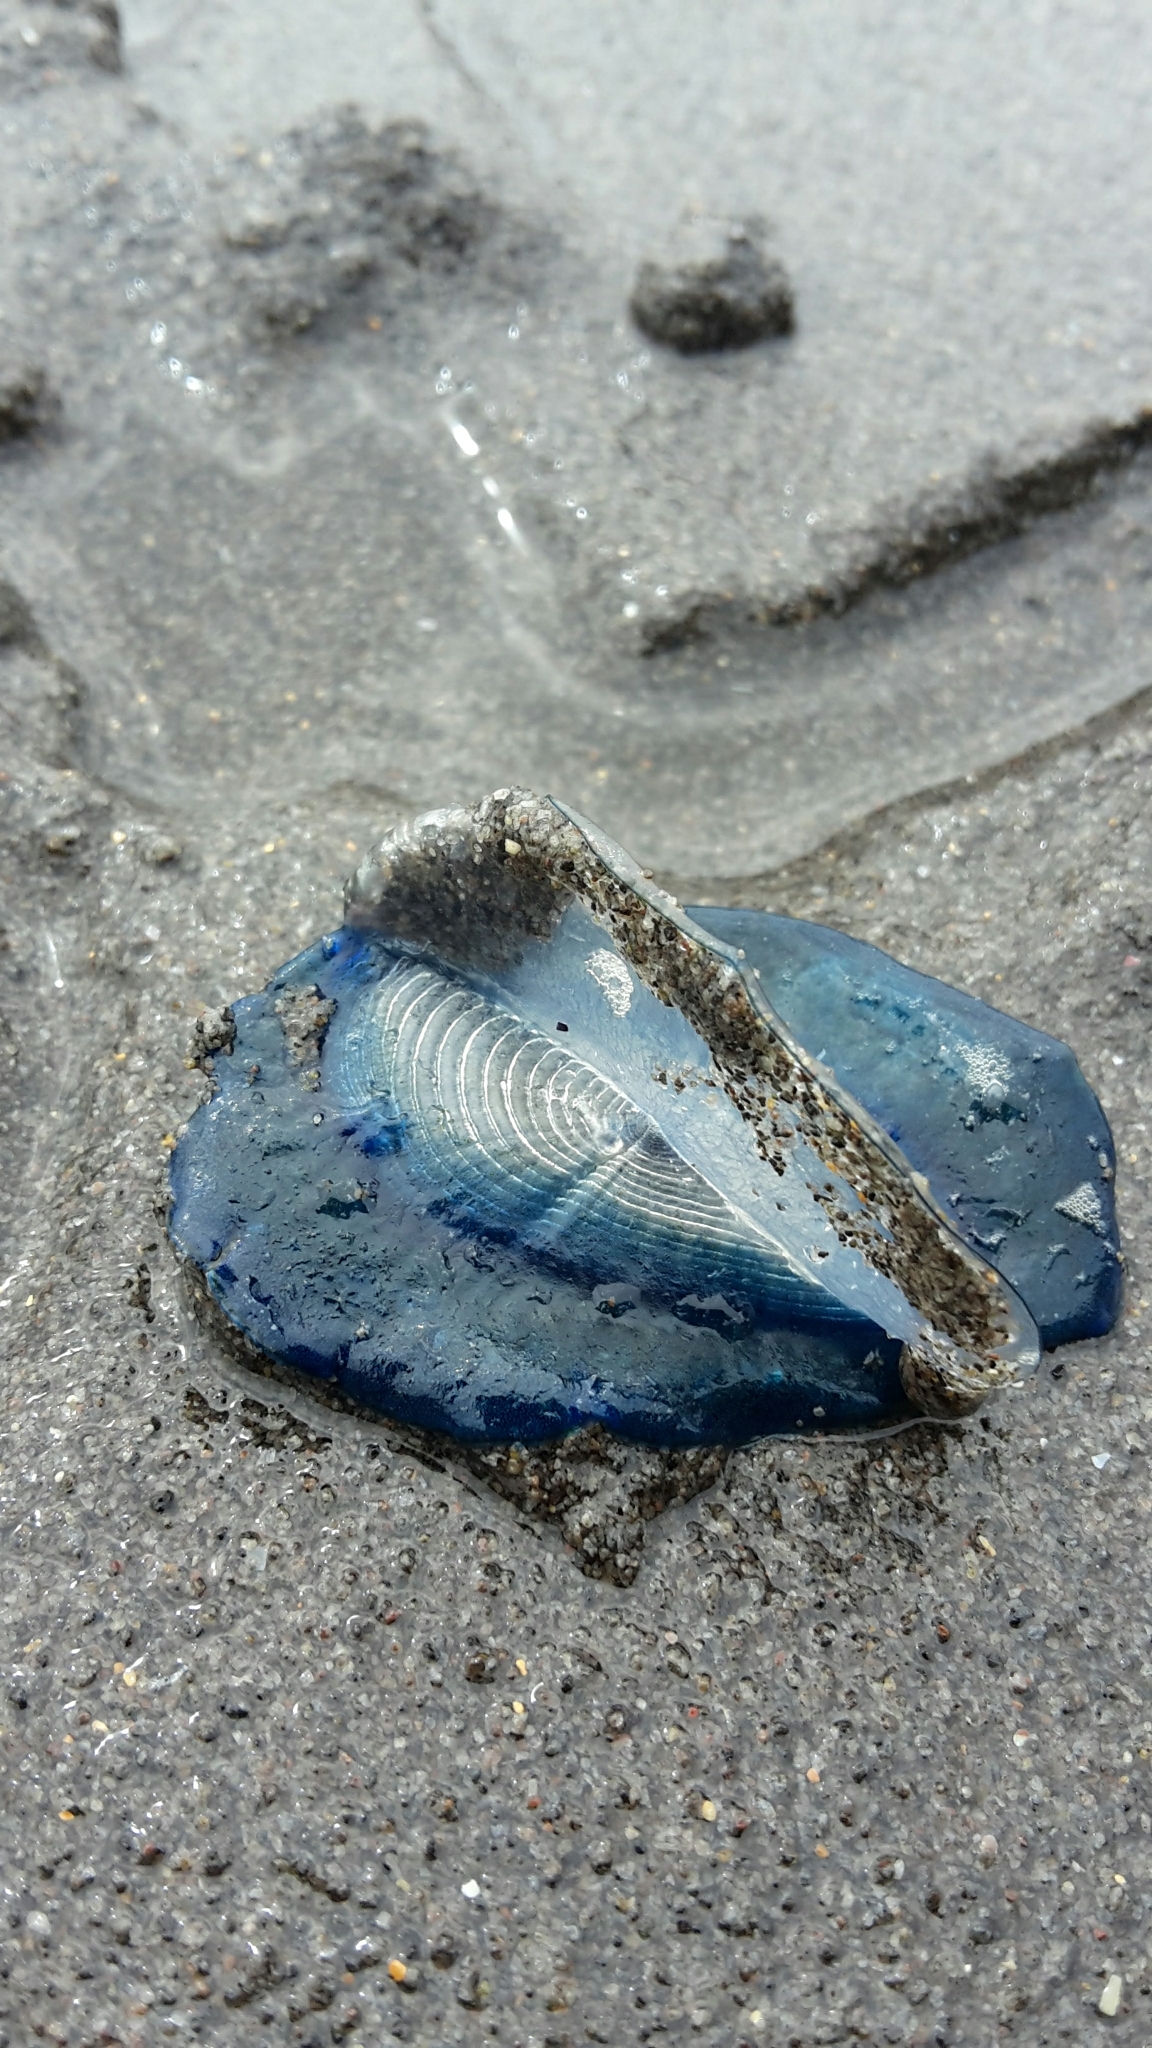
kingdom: Animalia
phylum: Cnidaria
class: Hydrozoa
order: Anthoathecata
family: Porpitidae
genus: Velella
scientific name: Velella velella
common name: By-the-wind-sailor
